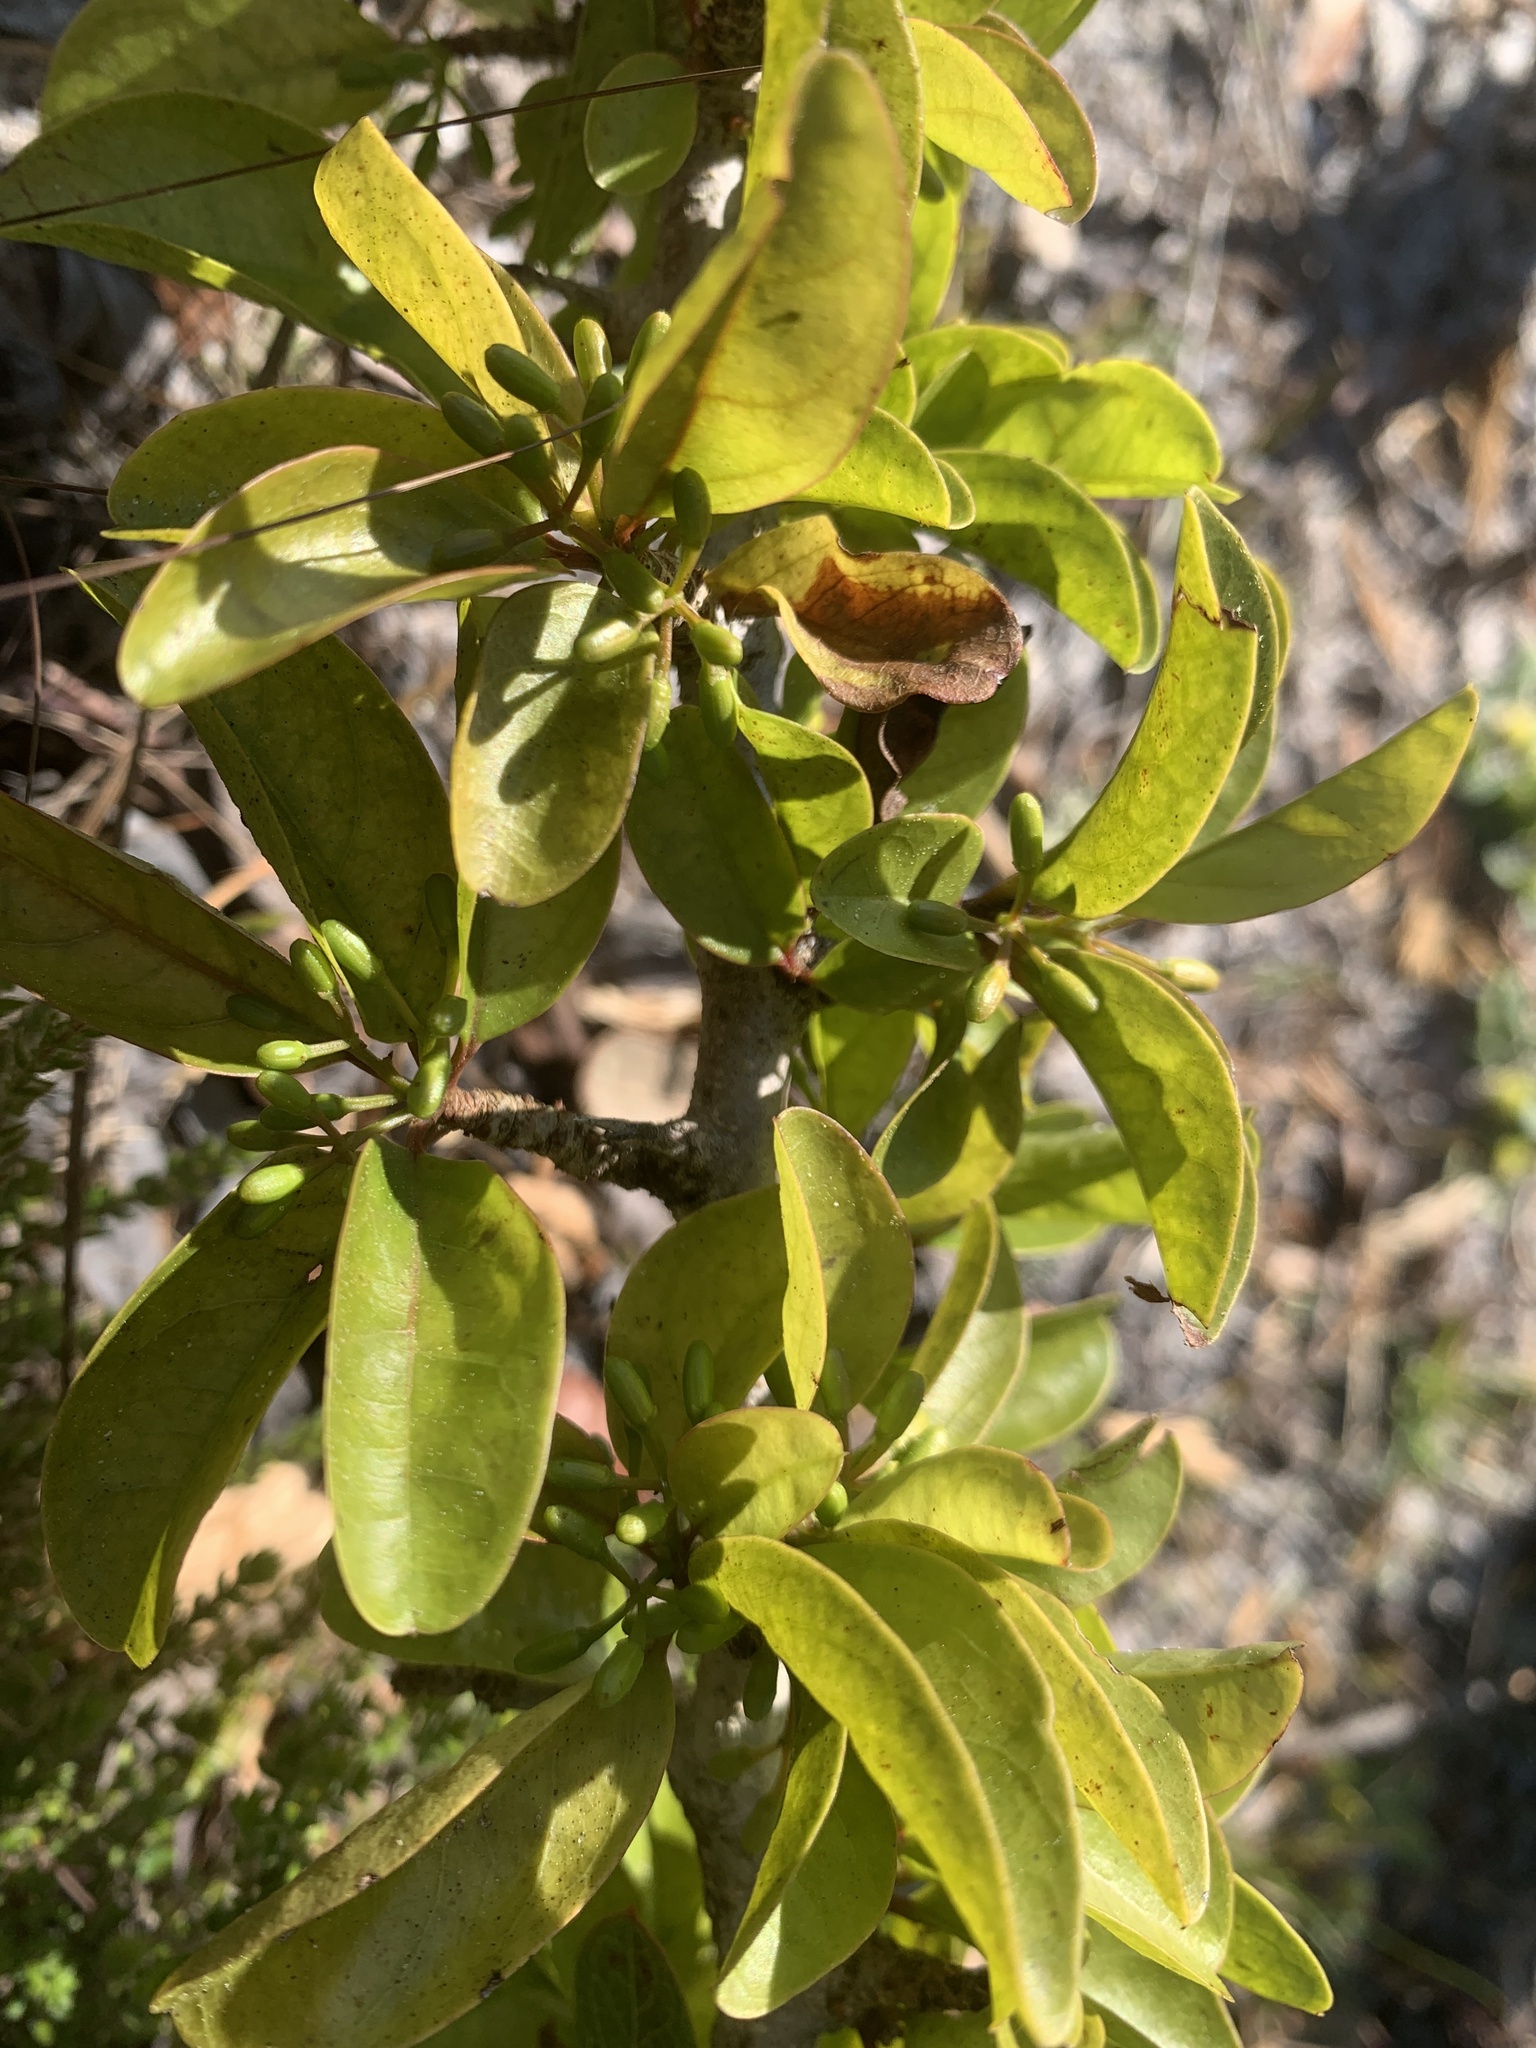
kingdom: Plantae
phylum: Tracheophyta
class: Magnoliopsida
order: Santalales
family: Ximeniaceae
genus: Ximenia
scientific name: Ximenia americana
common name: Tallowwood
